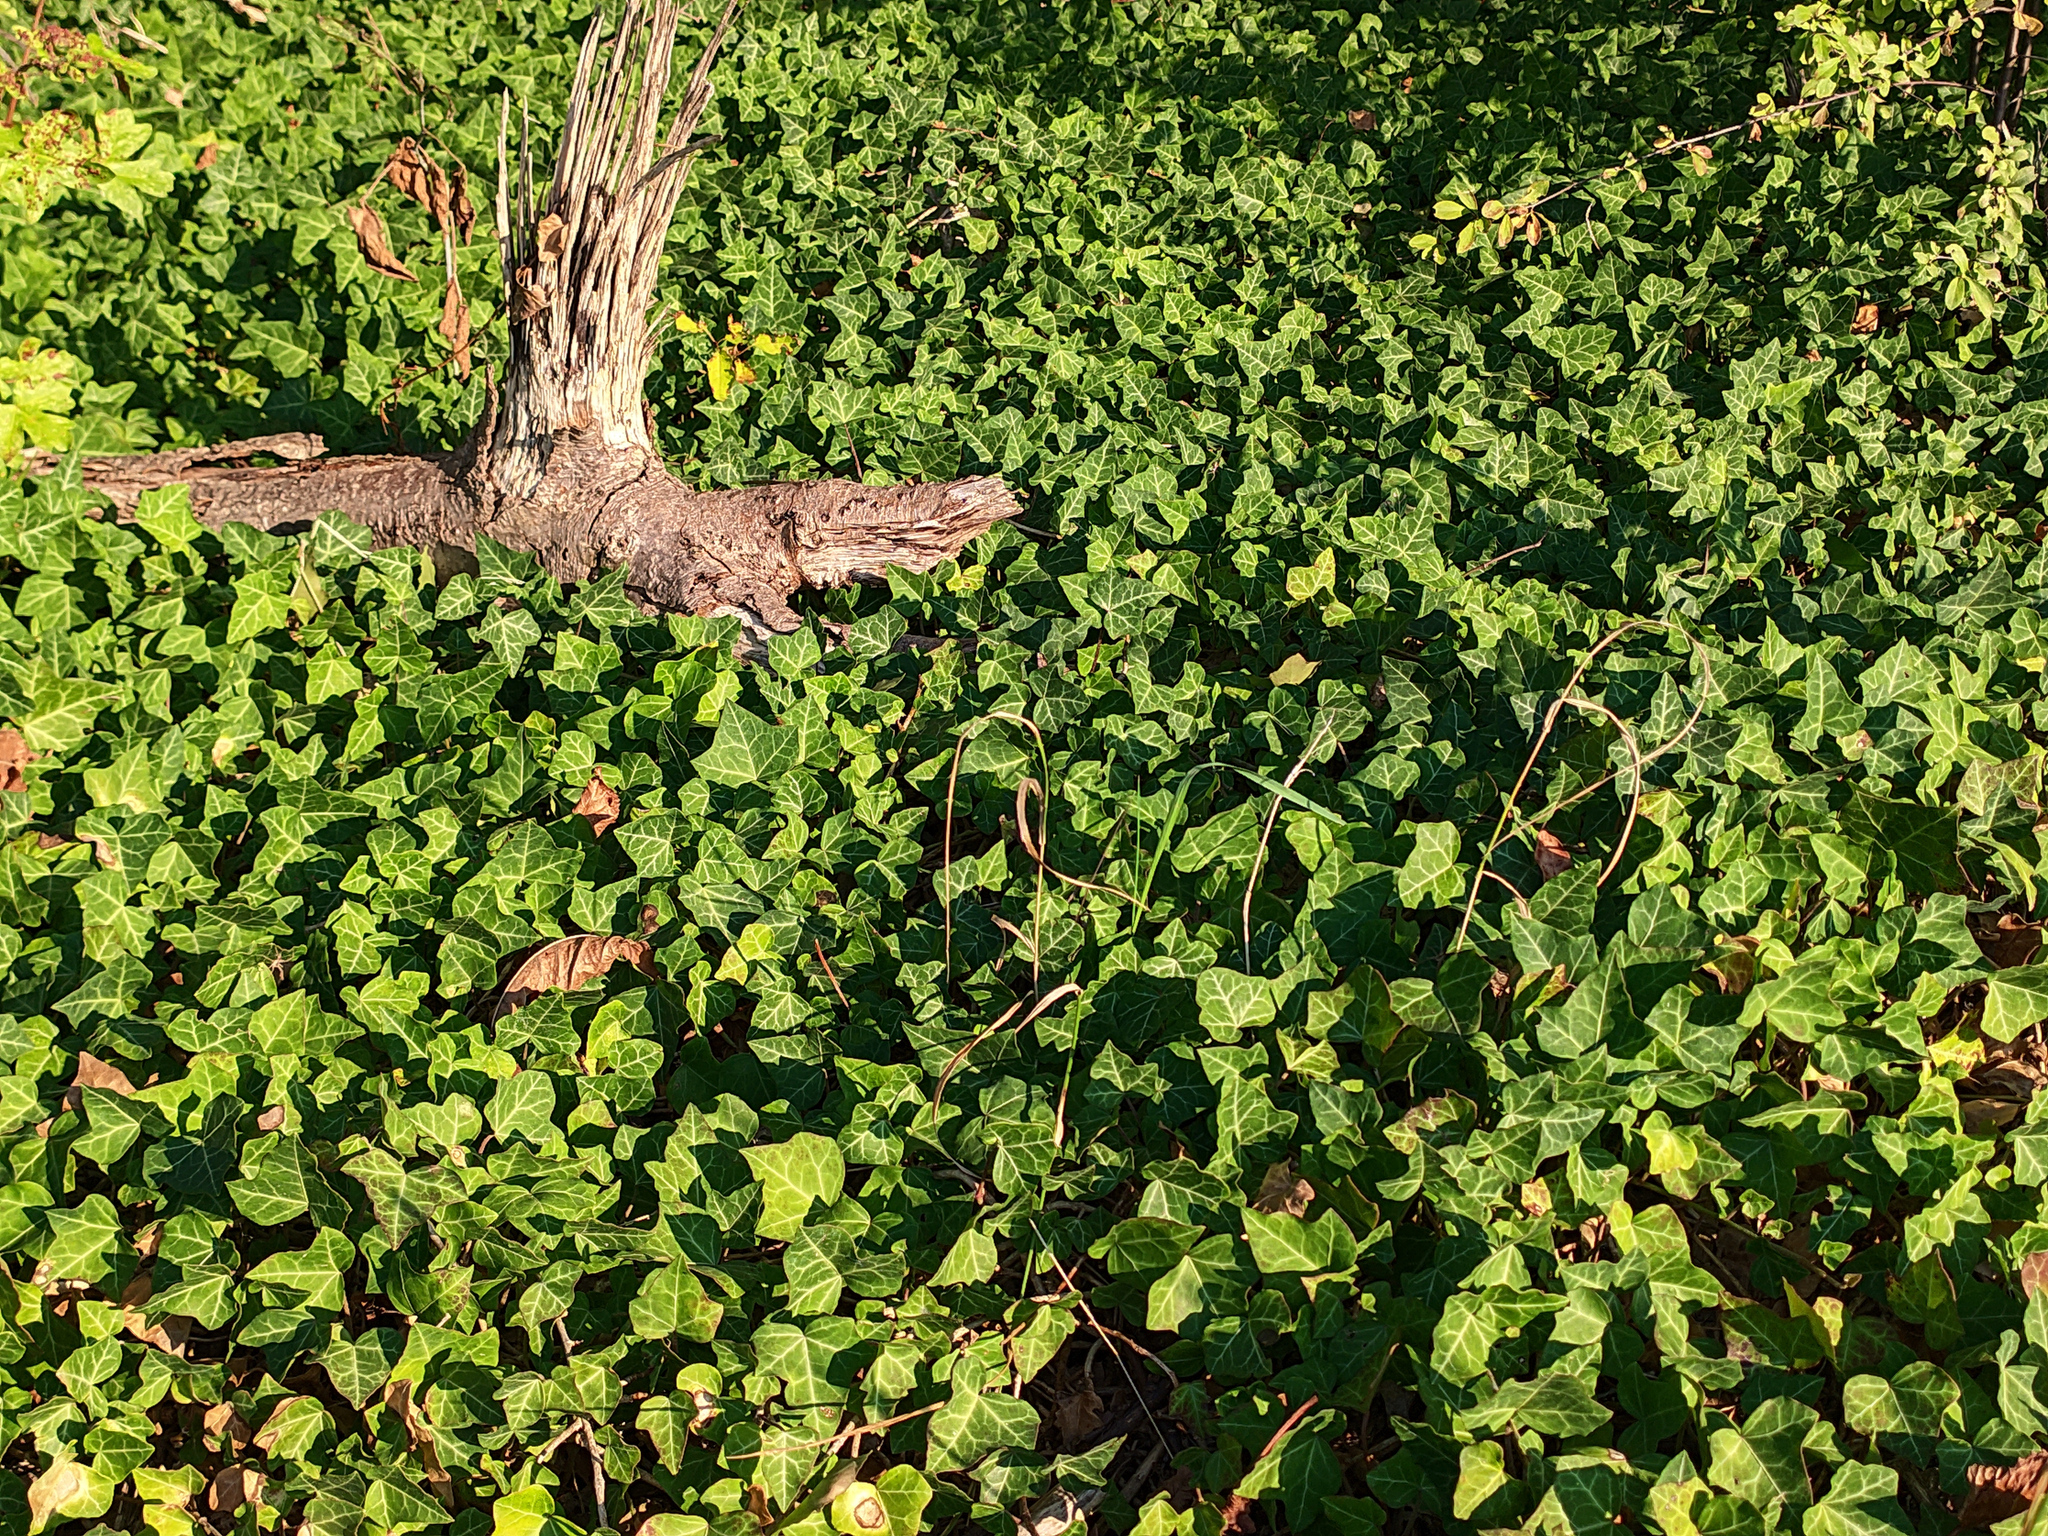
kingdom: Plantae
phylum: Tracheophyta
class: Magnoliopsida
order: Apiales
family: Araliaceae
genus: Hedera
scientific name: Hedera helix
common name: Ivy
